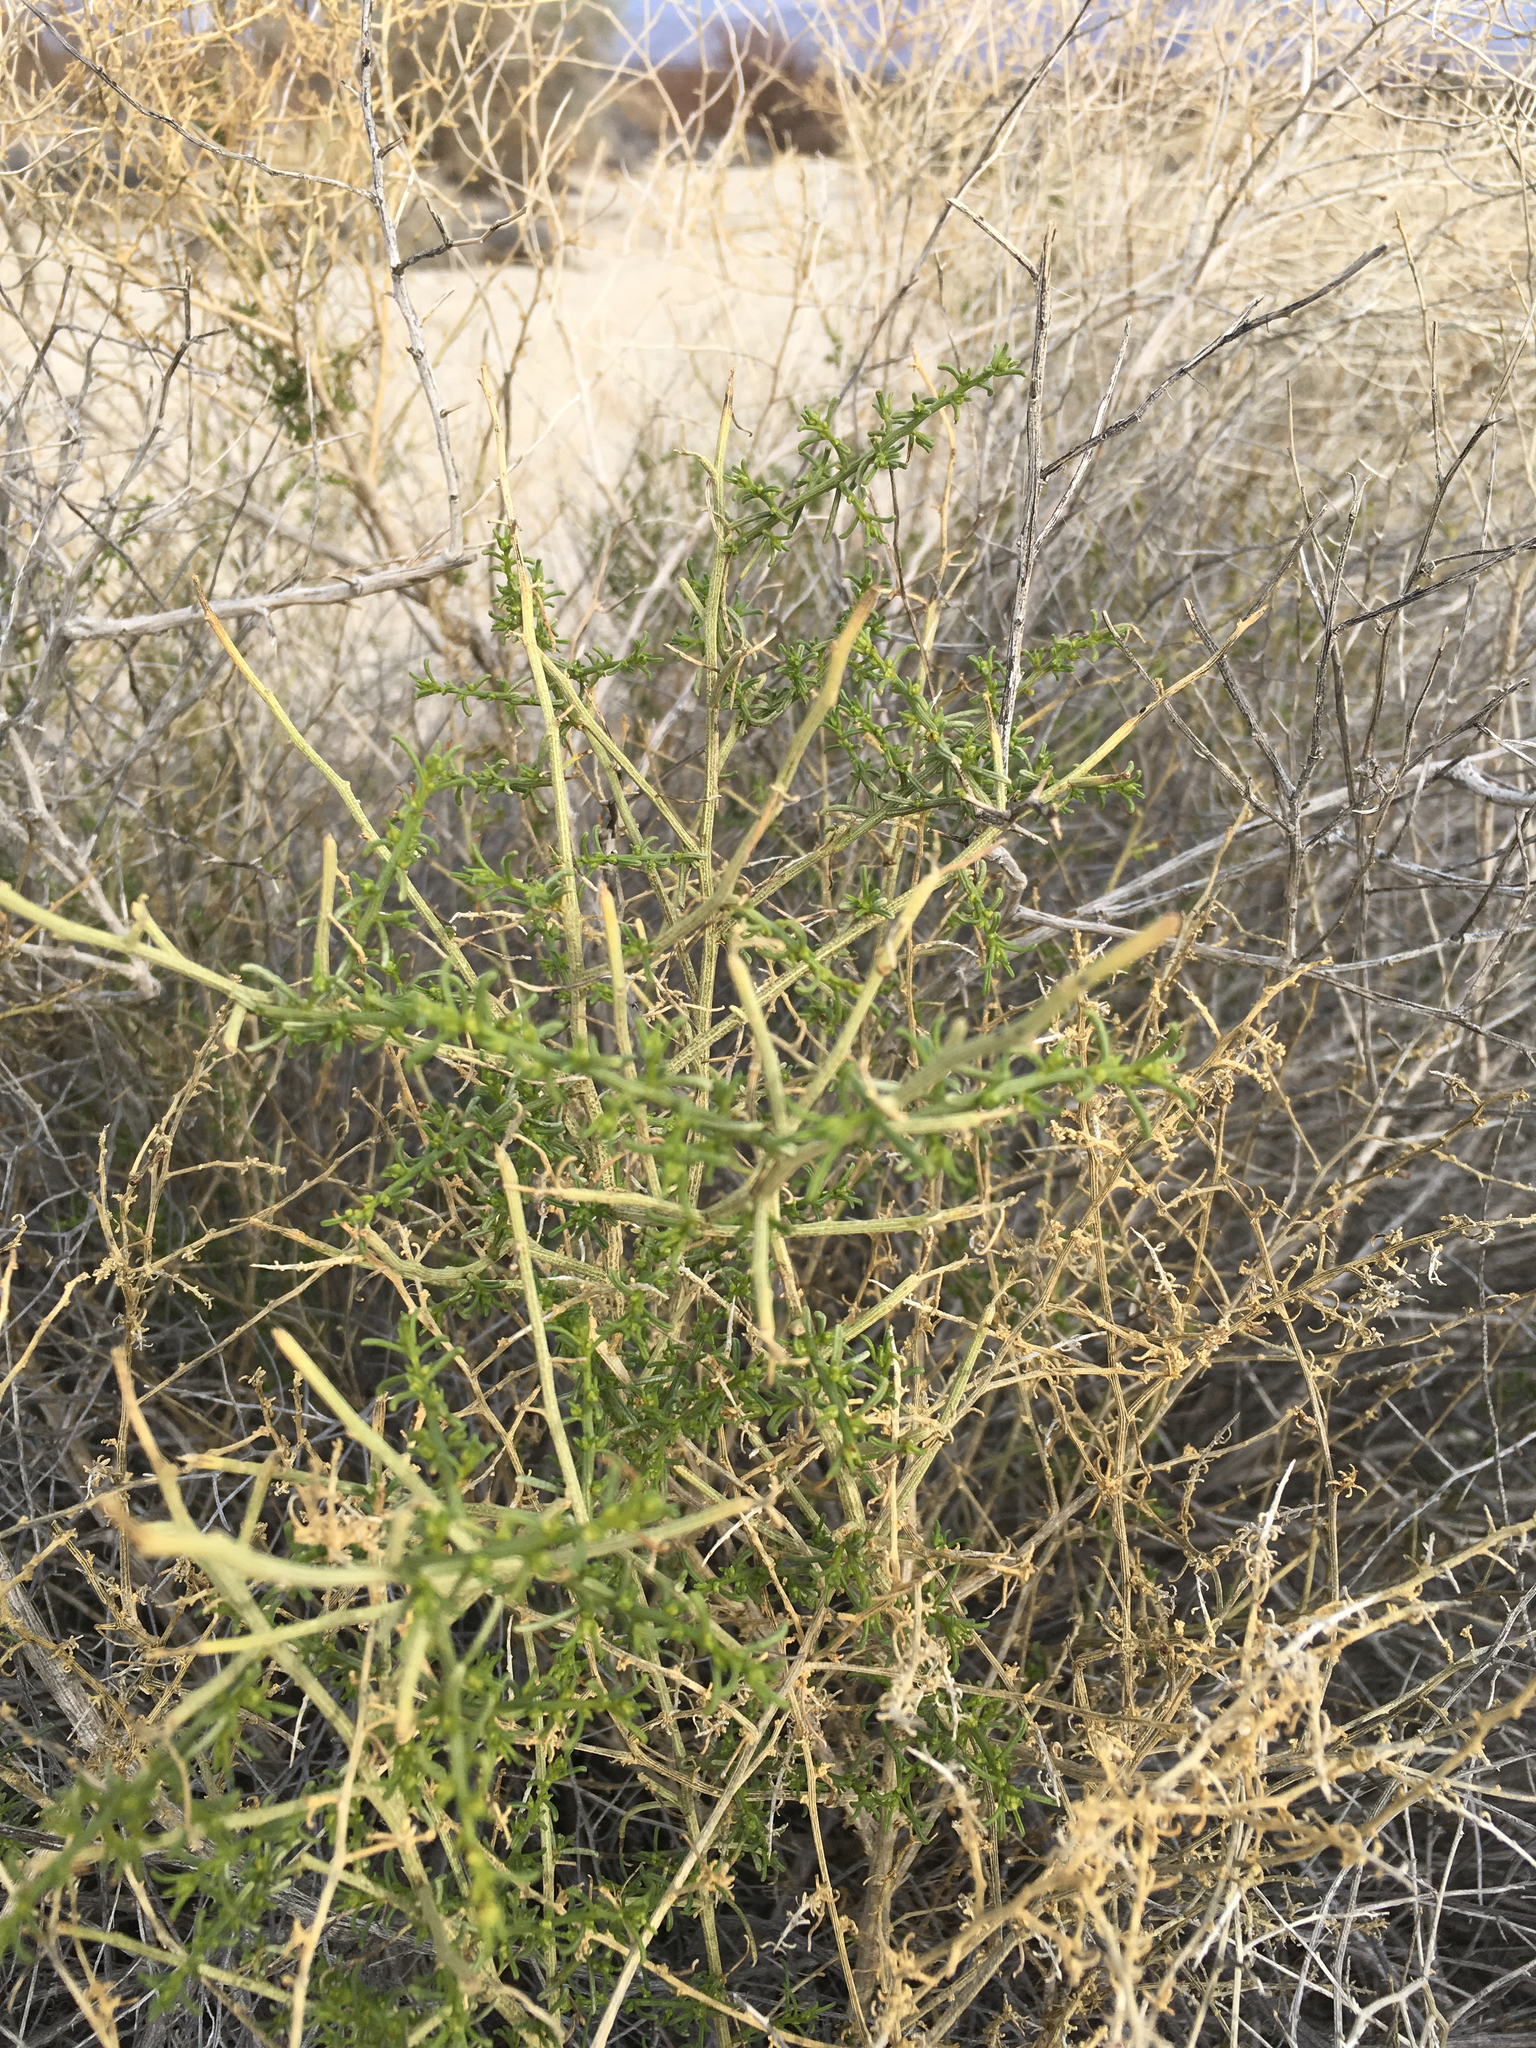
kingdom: Plantae
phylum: Tracheophyta
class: Magnoliopsida
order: Asterales
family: Asteraceae
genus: Ambrosia
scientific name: Ambrosia salsola
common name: Burrobrush
